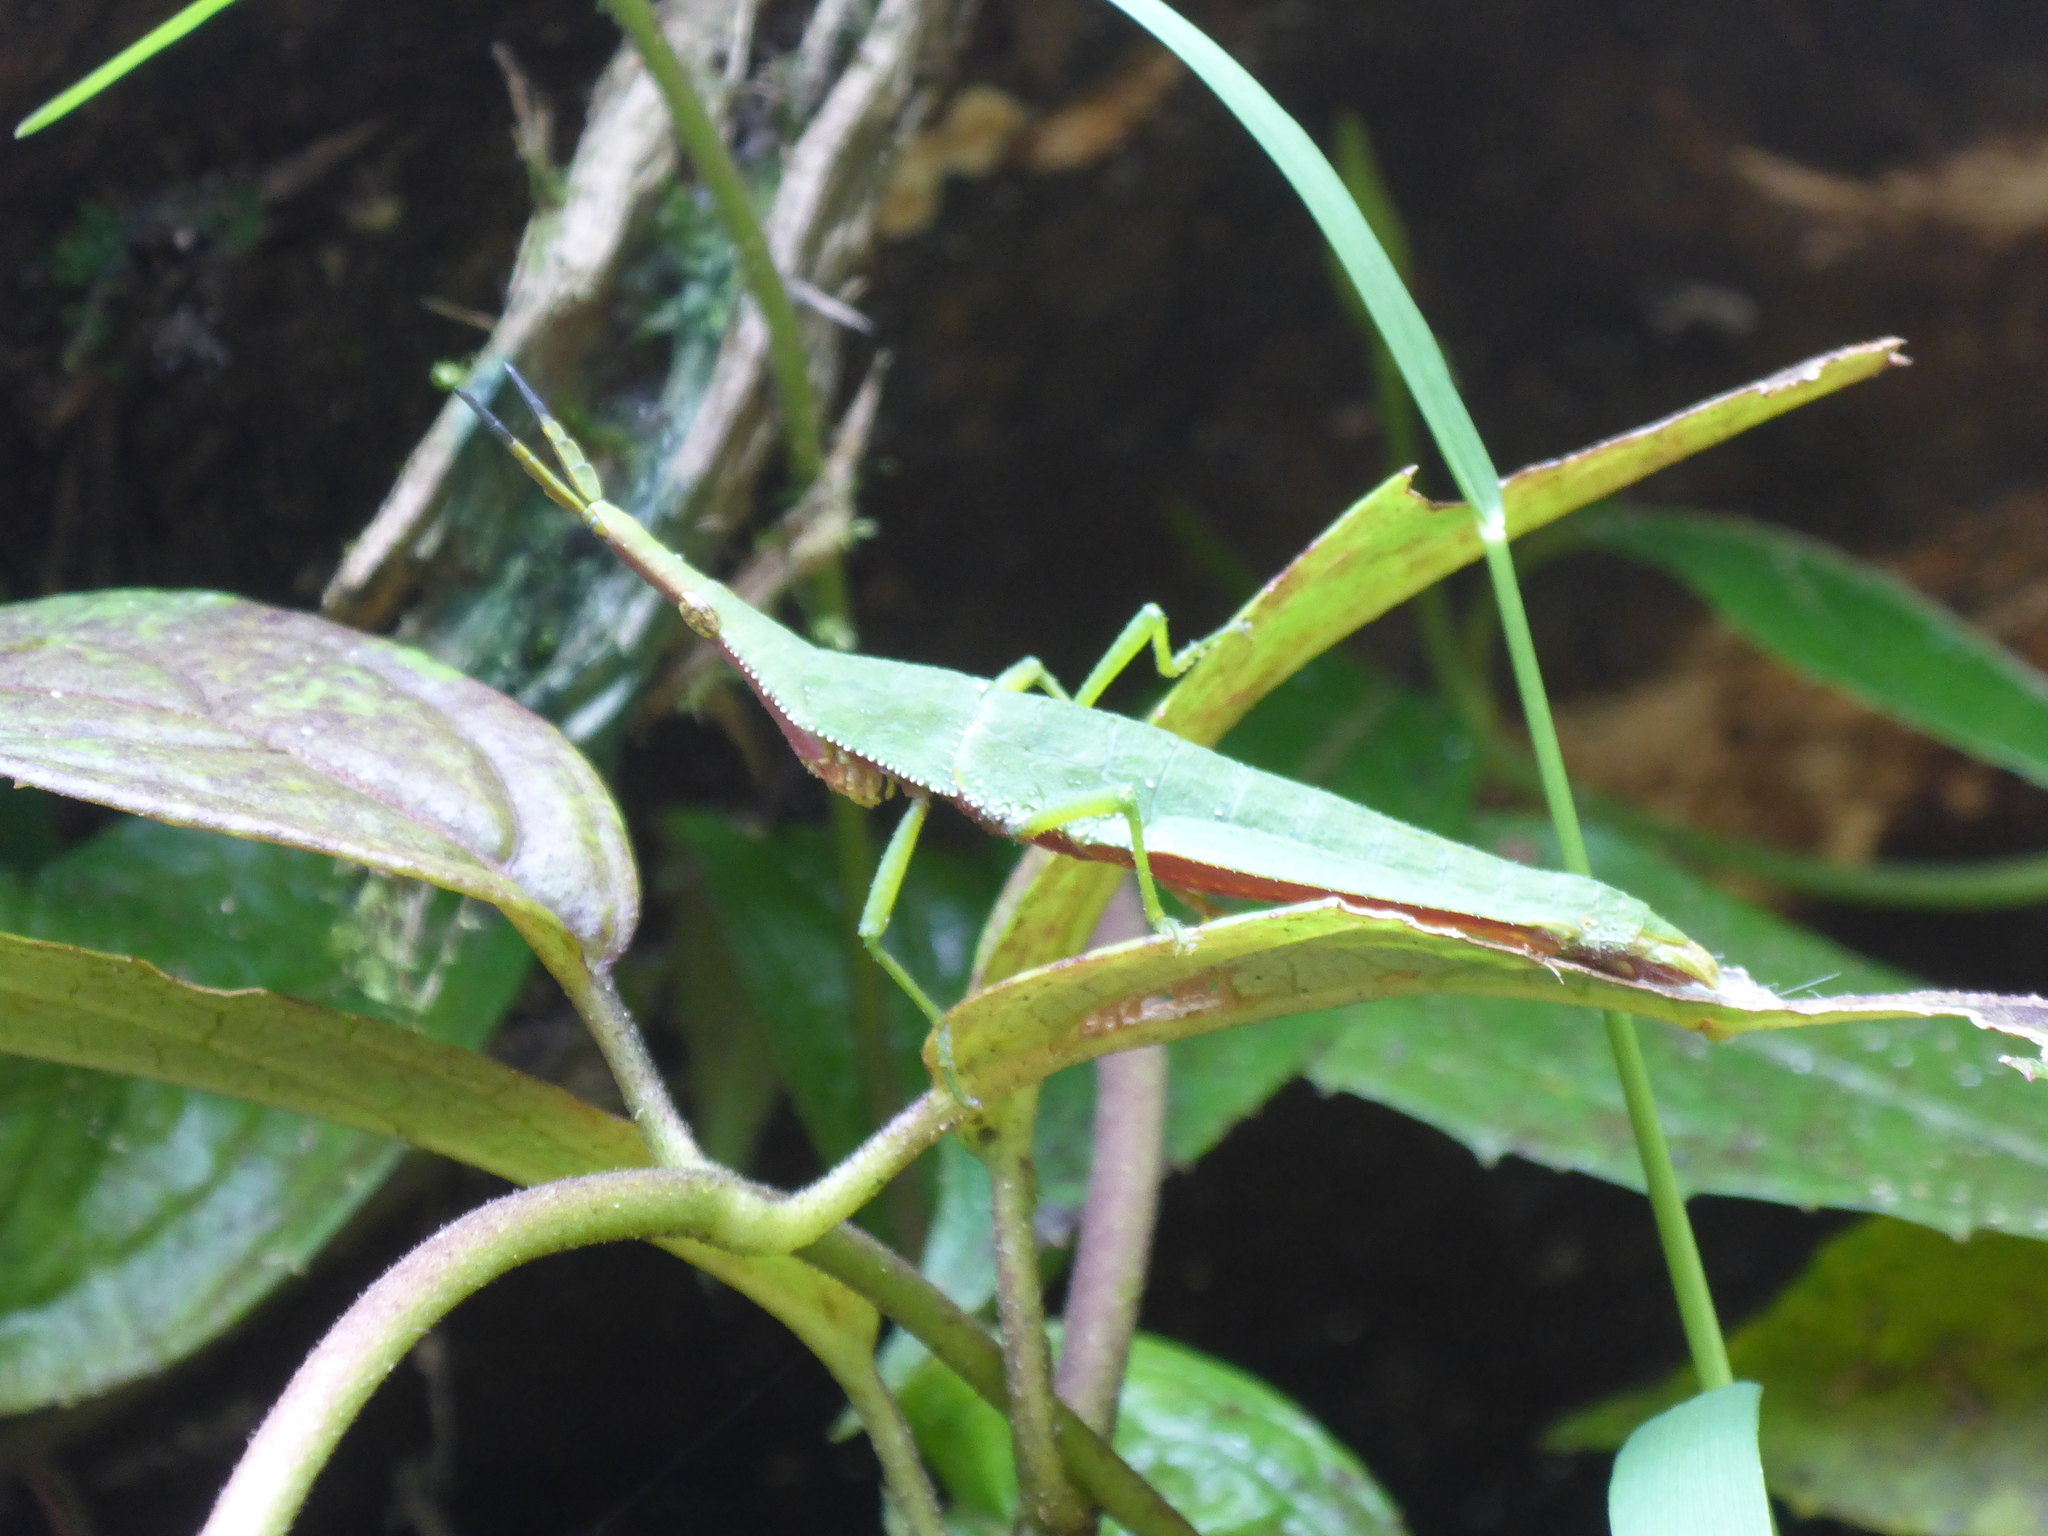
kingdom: Animalia
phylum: Arthropoda
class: Insecta
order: Orthoptera
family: Pyrgomorphidae
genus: Omura
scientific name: Omura congrua
